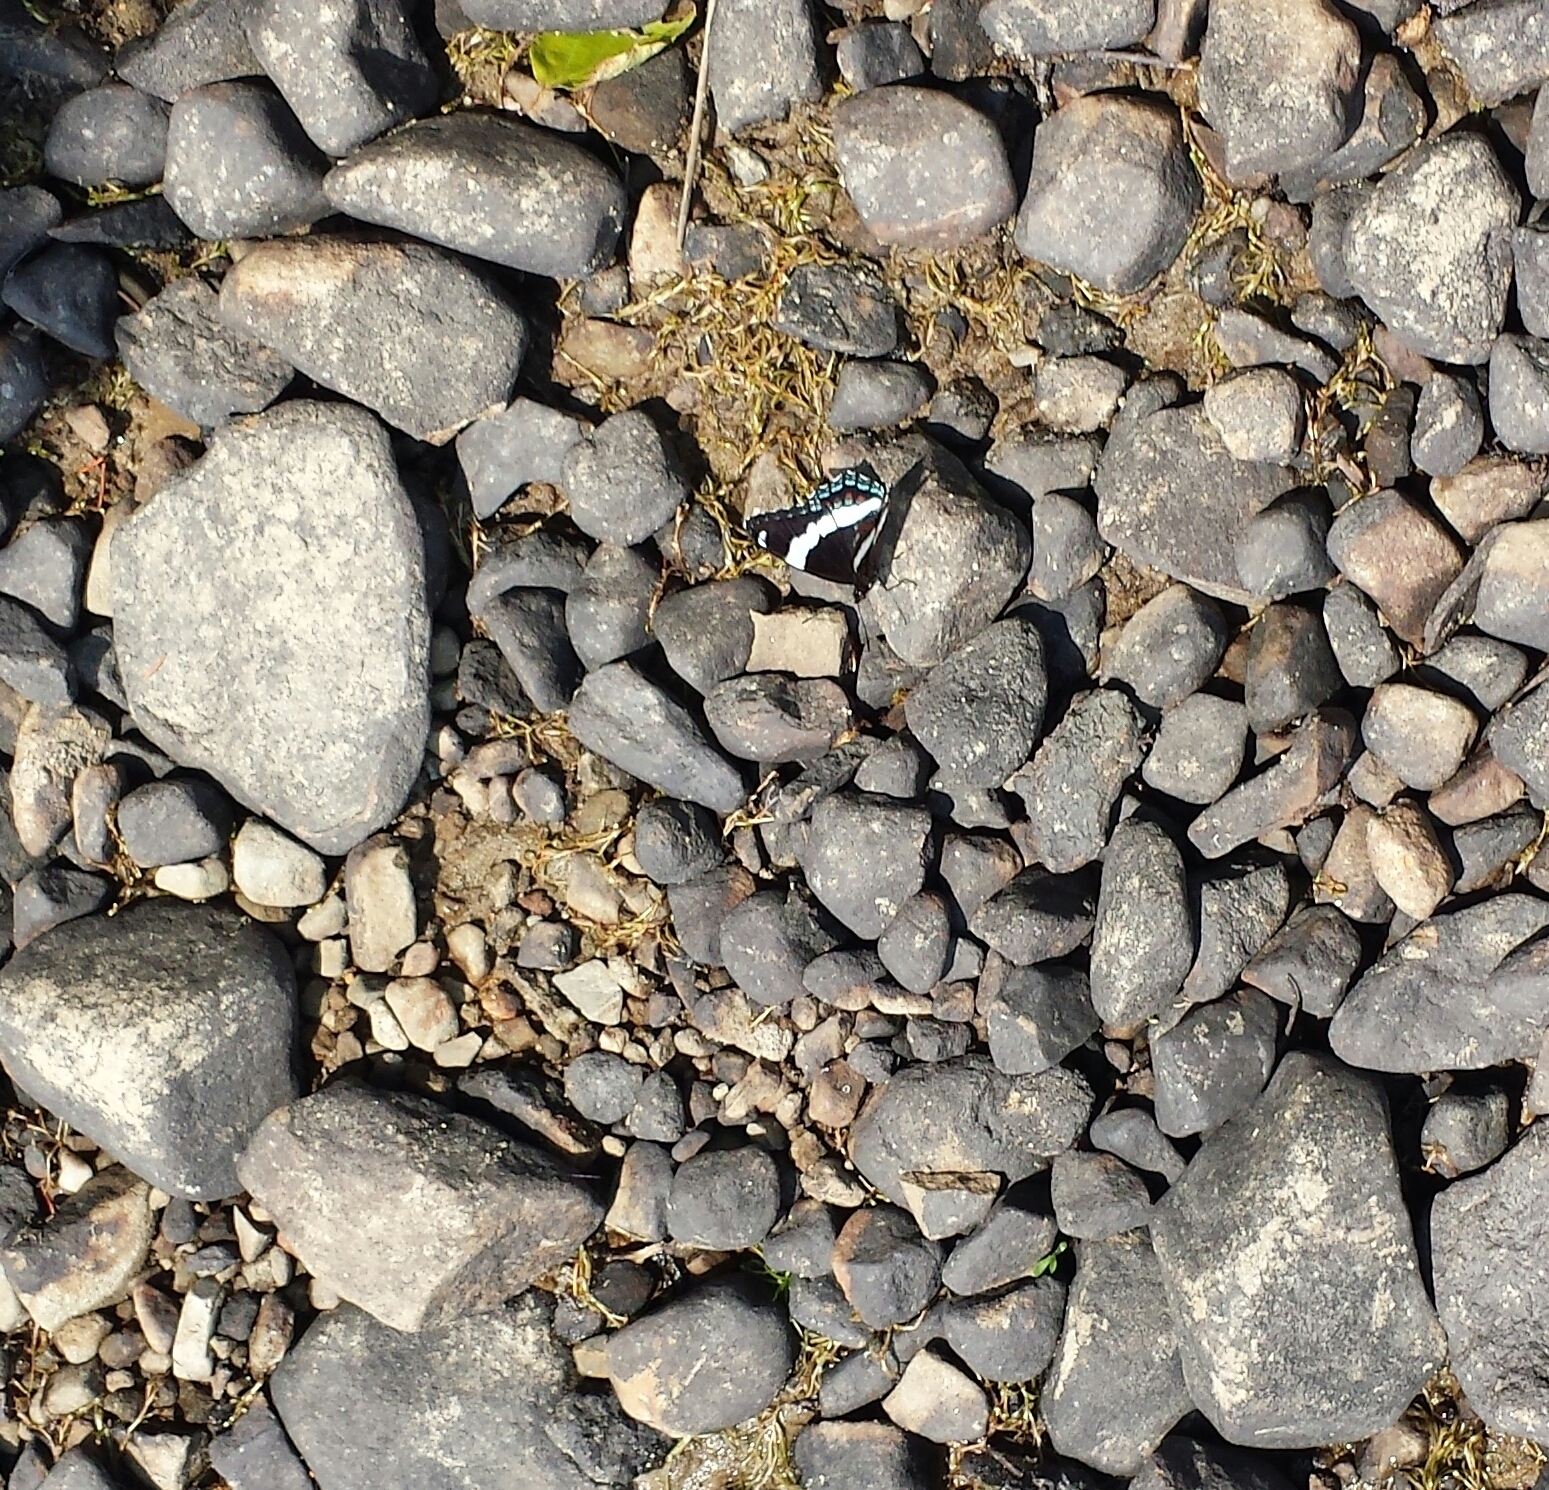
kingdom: Animalia
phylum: Arthropoda
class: Insecta
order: Lepidoptera
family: Nymphalidae
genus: Limenitis
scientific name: Limenitis arthemis
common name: Red-spotted admiral
